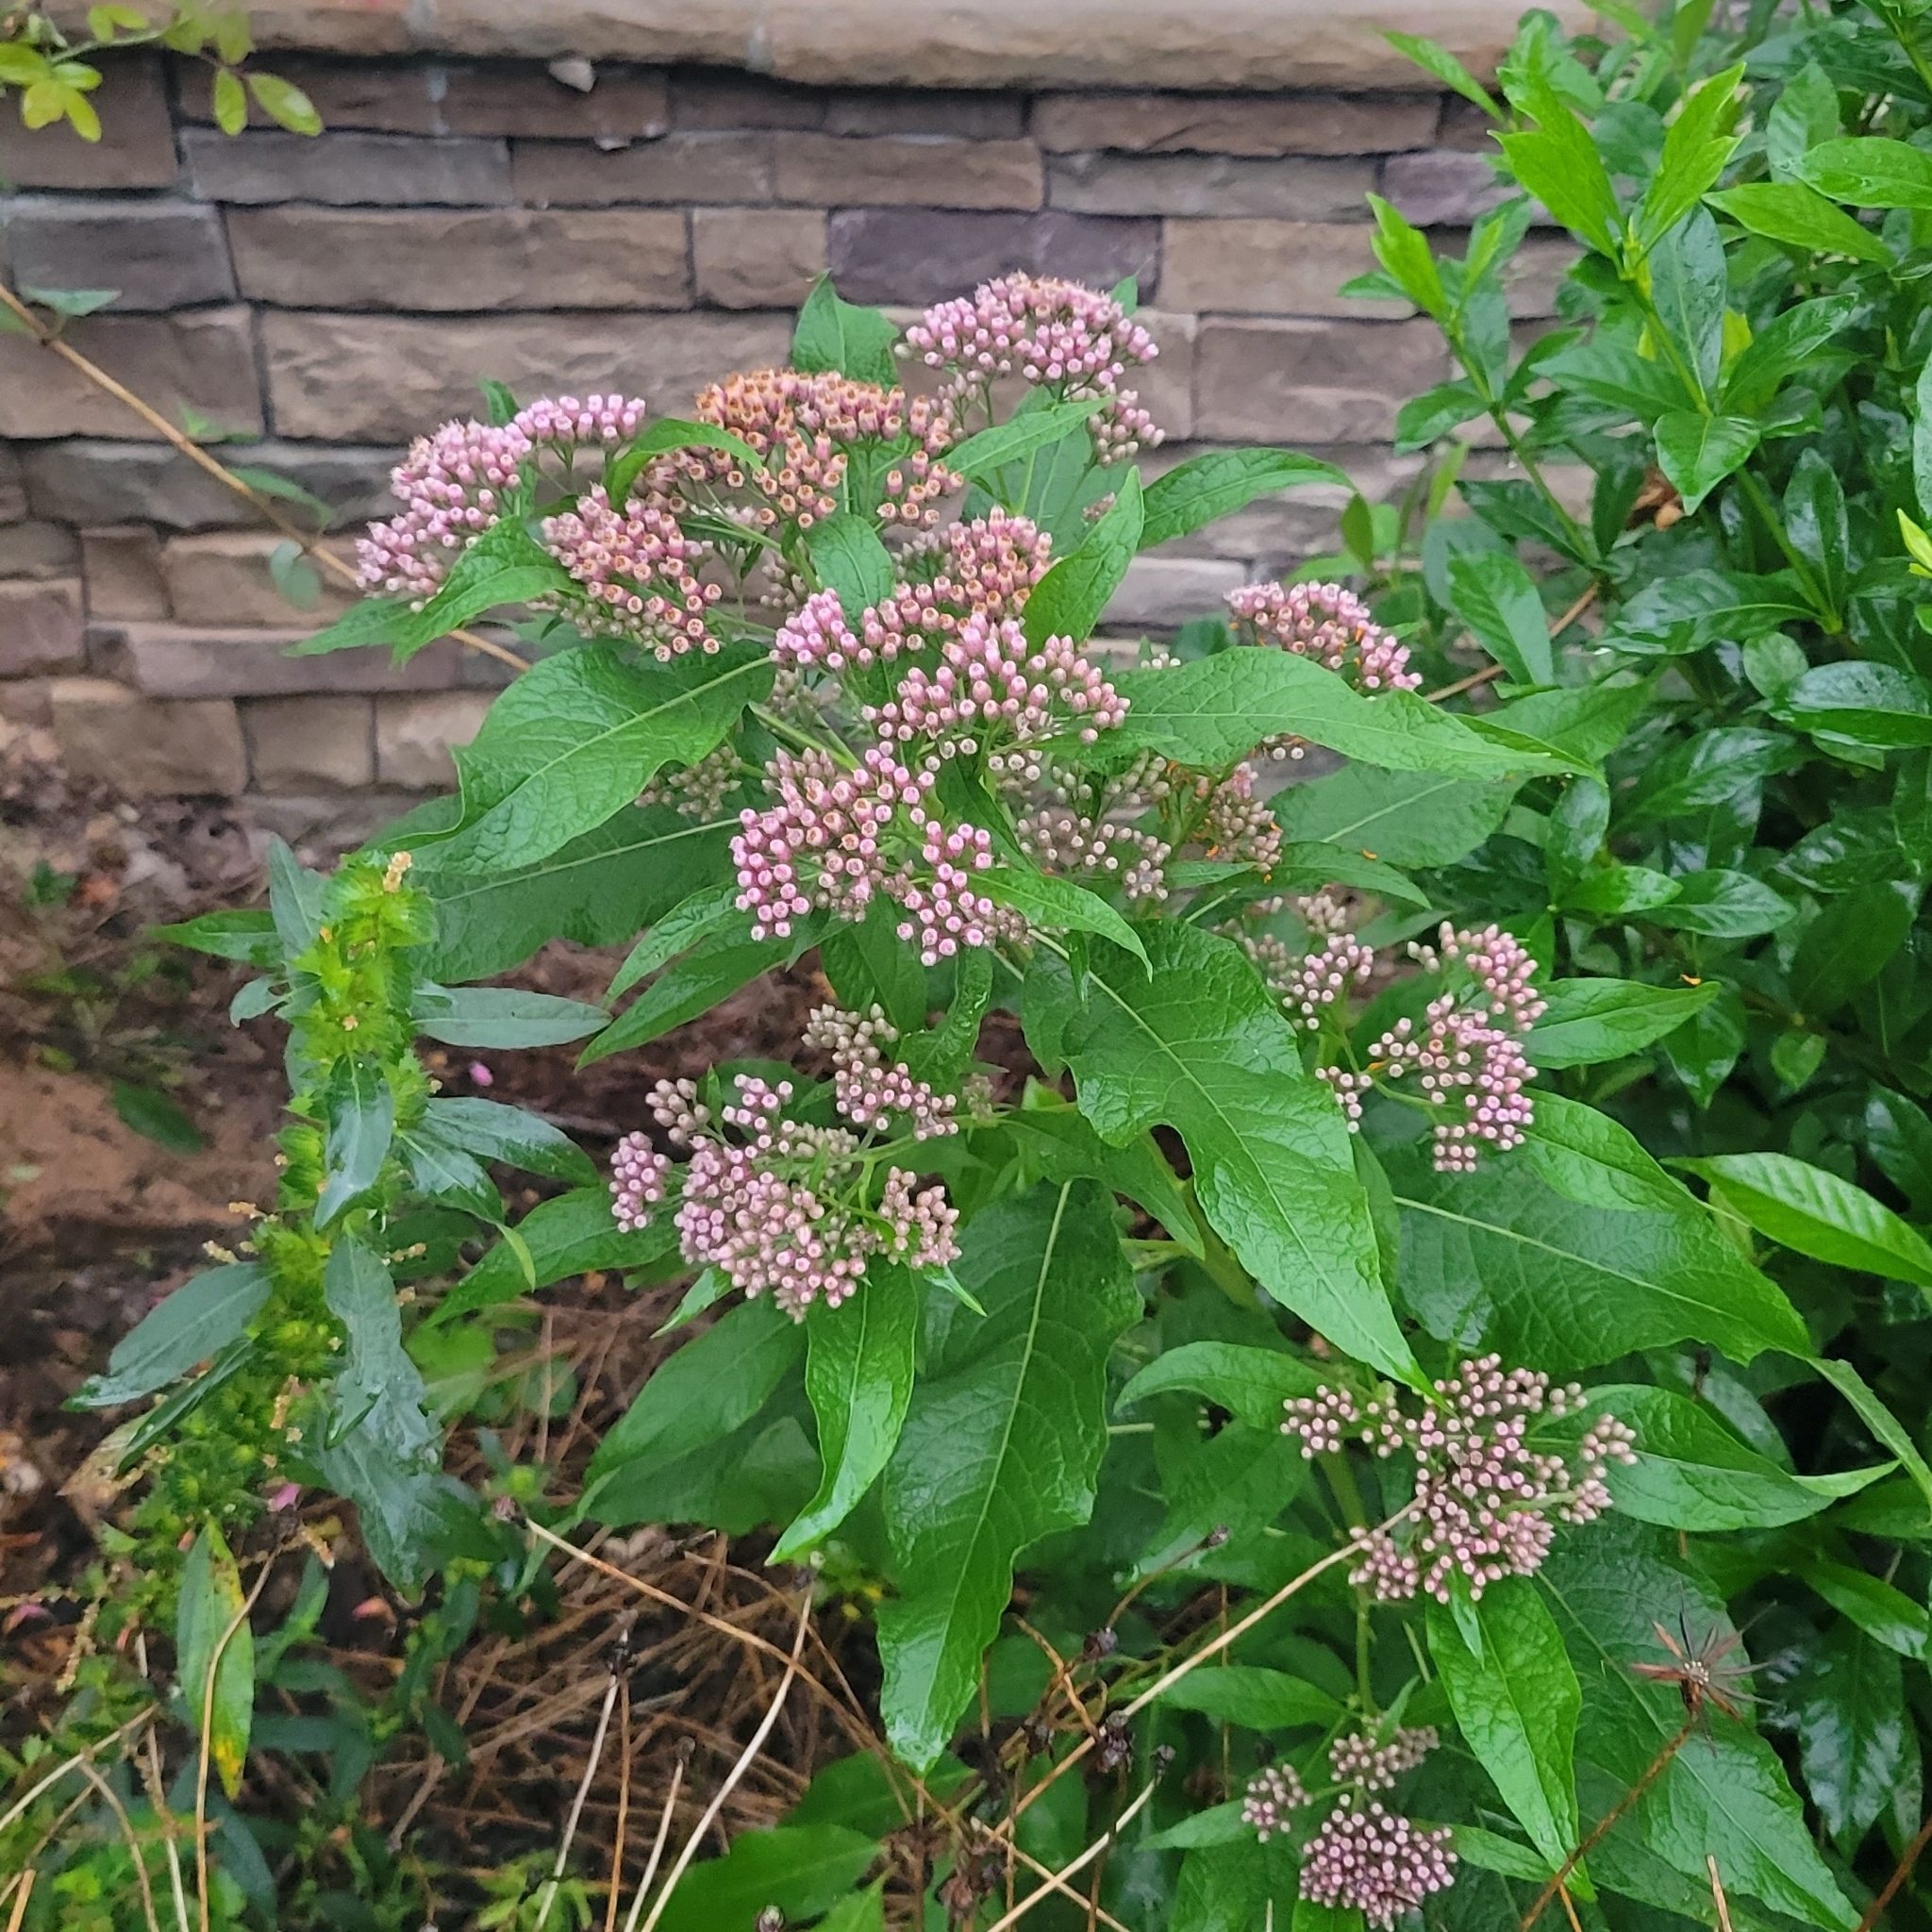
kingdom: Plantae
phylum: Tracheophyta
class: Magnoliopsida
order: Asterales
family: Asteraceae
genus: Pluchea
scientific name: Pluchea camphorata
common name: Camphor pluchea
